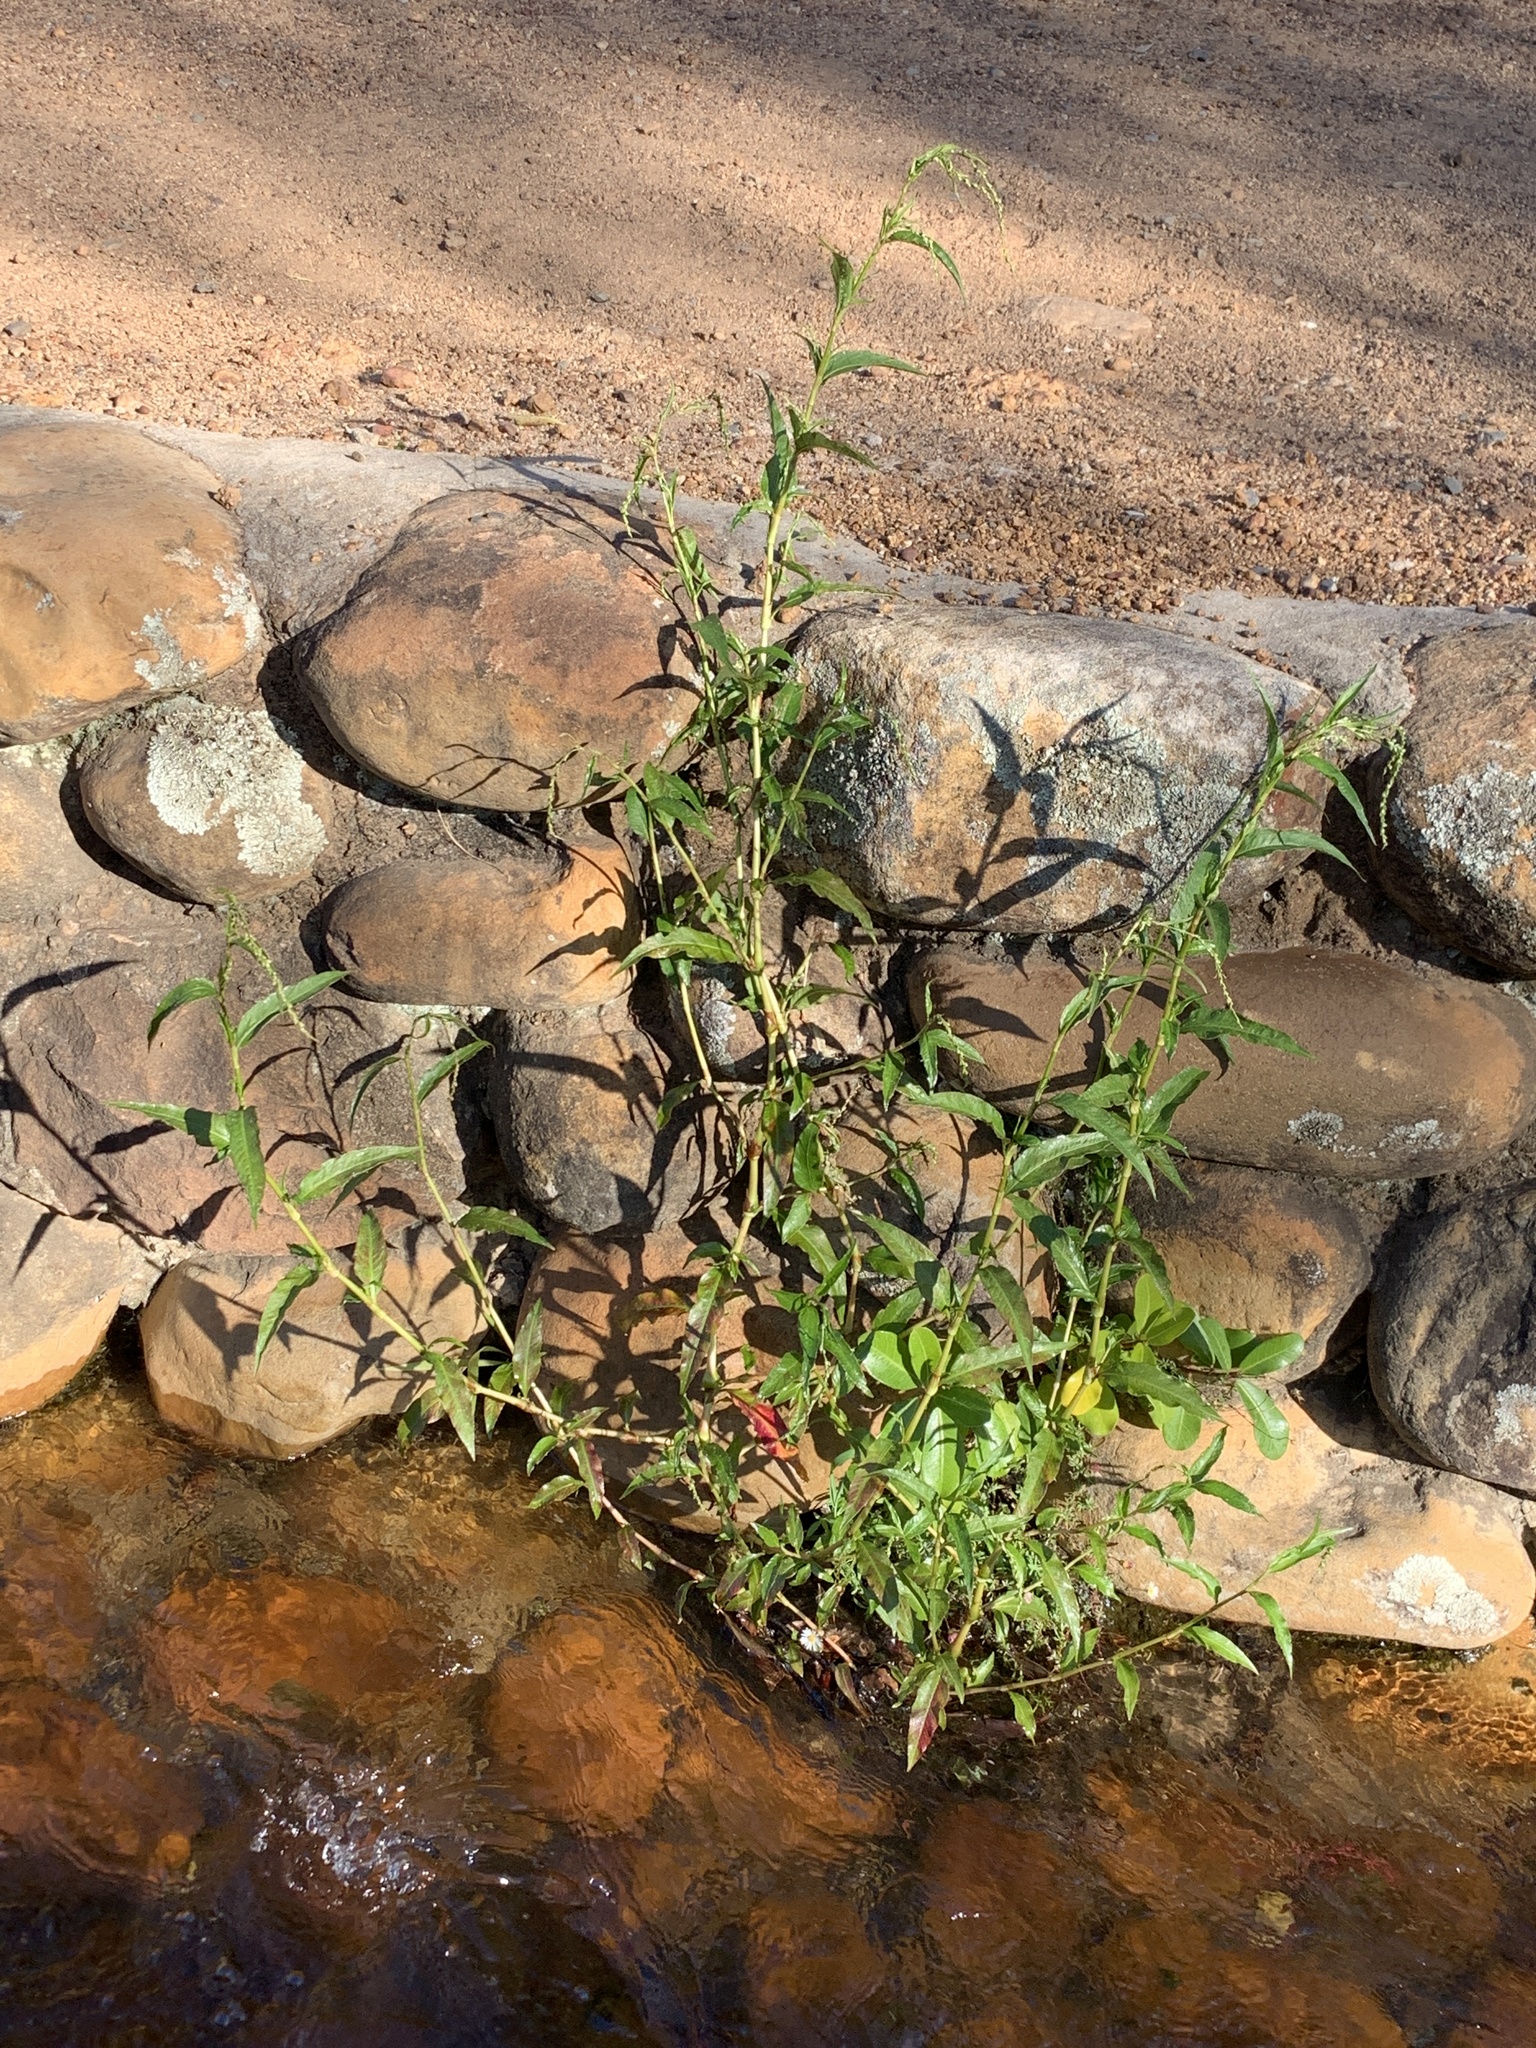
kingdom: Plantae
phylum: Tracheophyta
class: Magnoliopsida
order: Caryophyllales
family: Polygonaceae
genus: Persicaria
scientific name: Persicaria hydropiper
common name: Water-pepper
